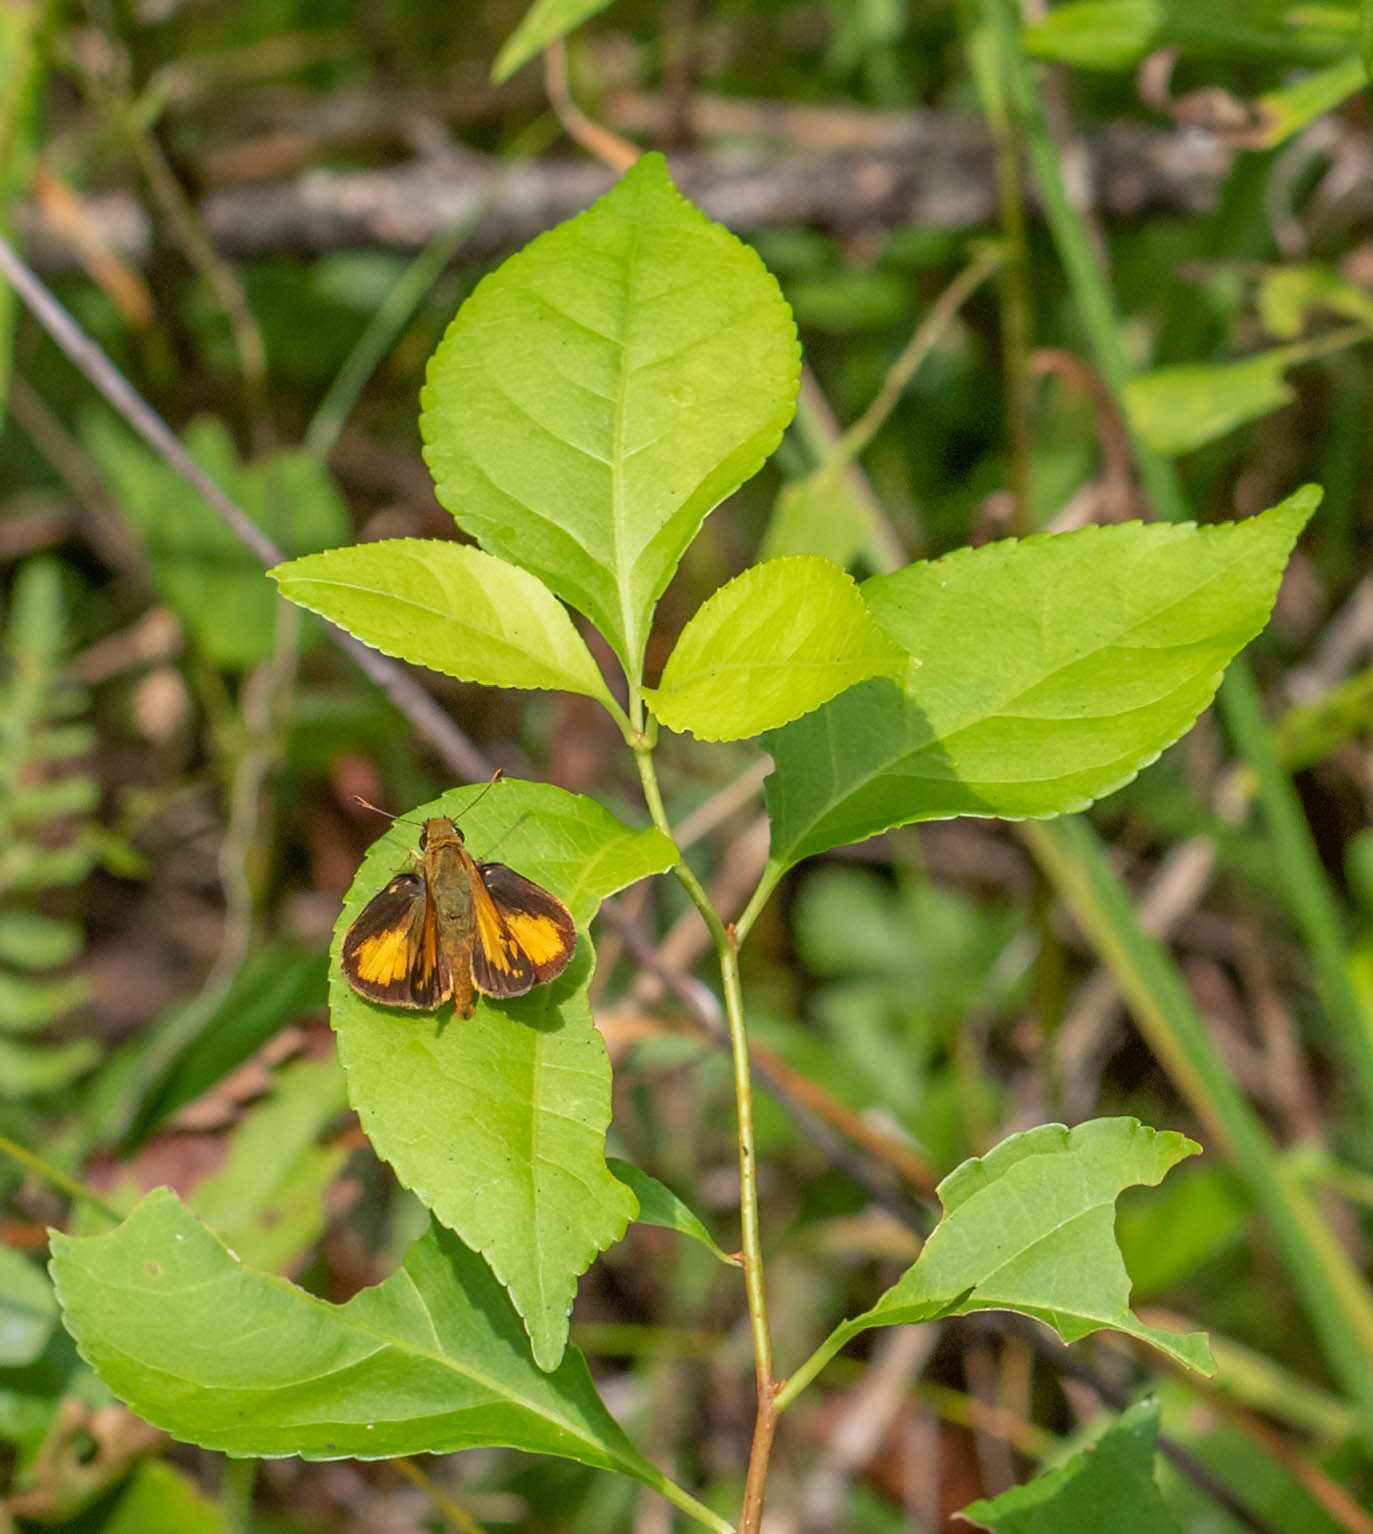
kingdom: Animalia
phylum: Arthropoda
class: Insecta
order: Lepidoptera
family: Hesperiidae
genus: Lon
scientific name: Lon zabulon
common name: Zabulon skipper
